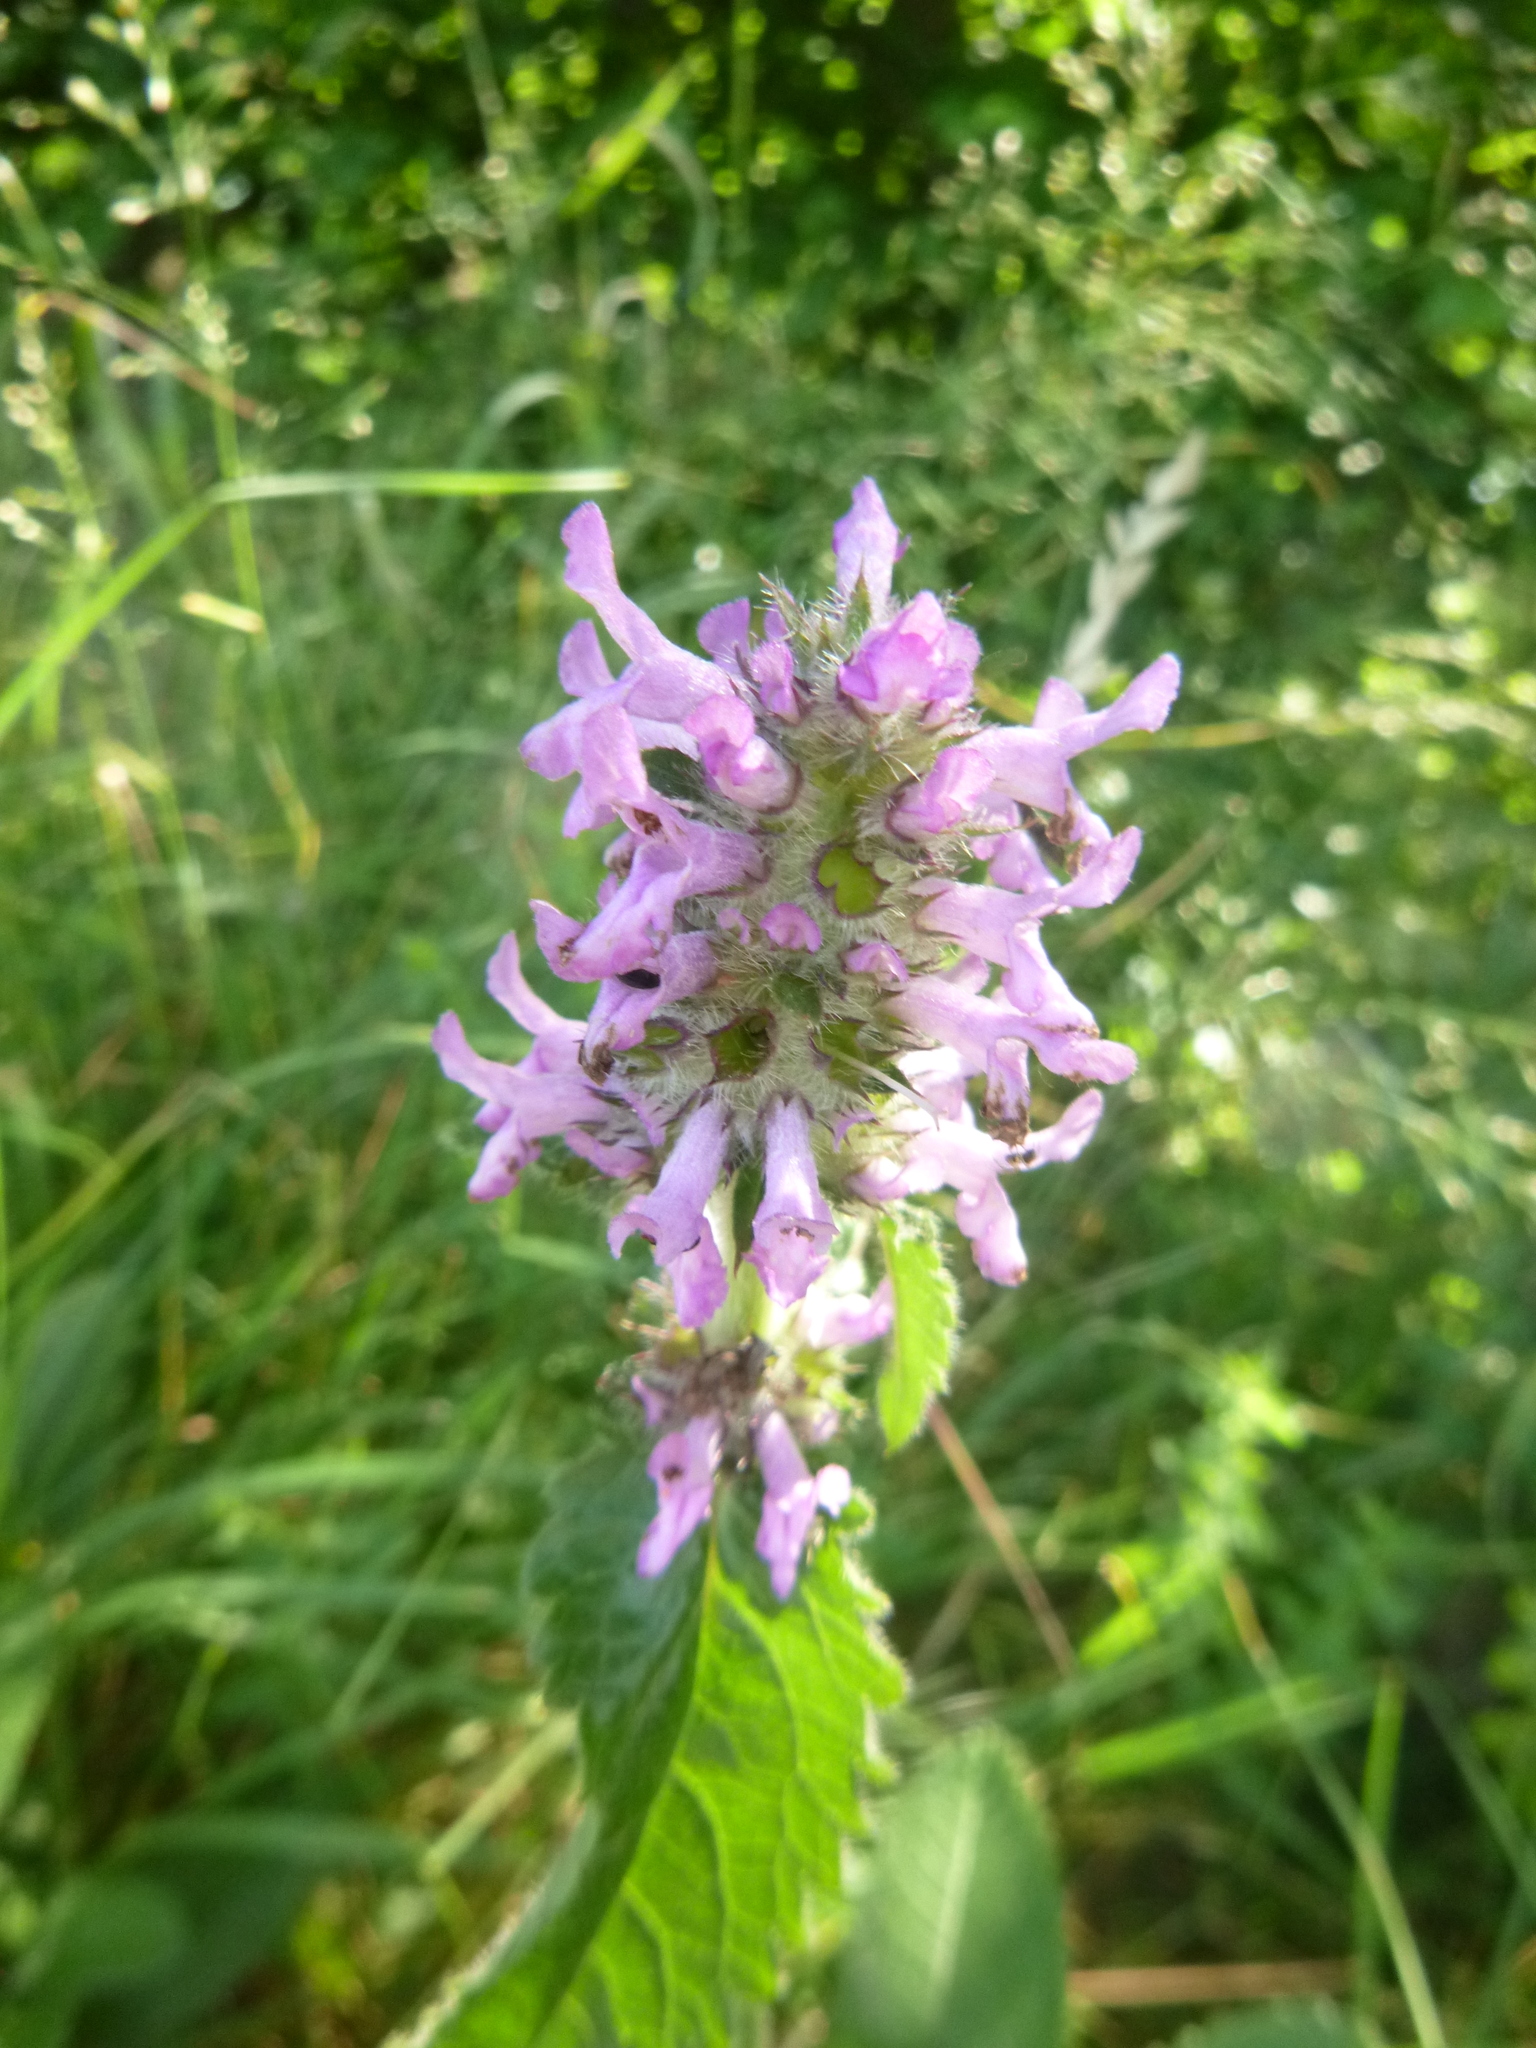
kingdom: Plantae
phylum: Tracheophyta
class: Magnoliopsida
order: Lamiales
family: Lamiaceae
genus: Betonica
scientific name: Betonica officinalis
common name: Bishop's-wort
